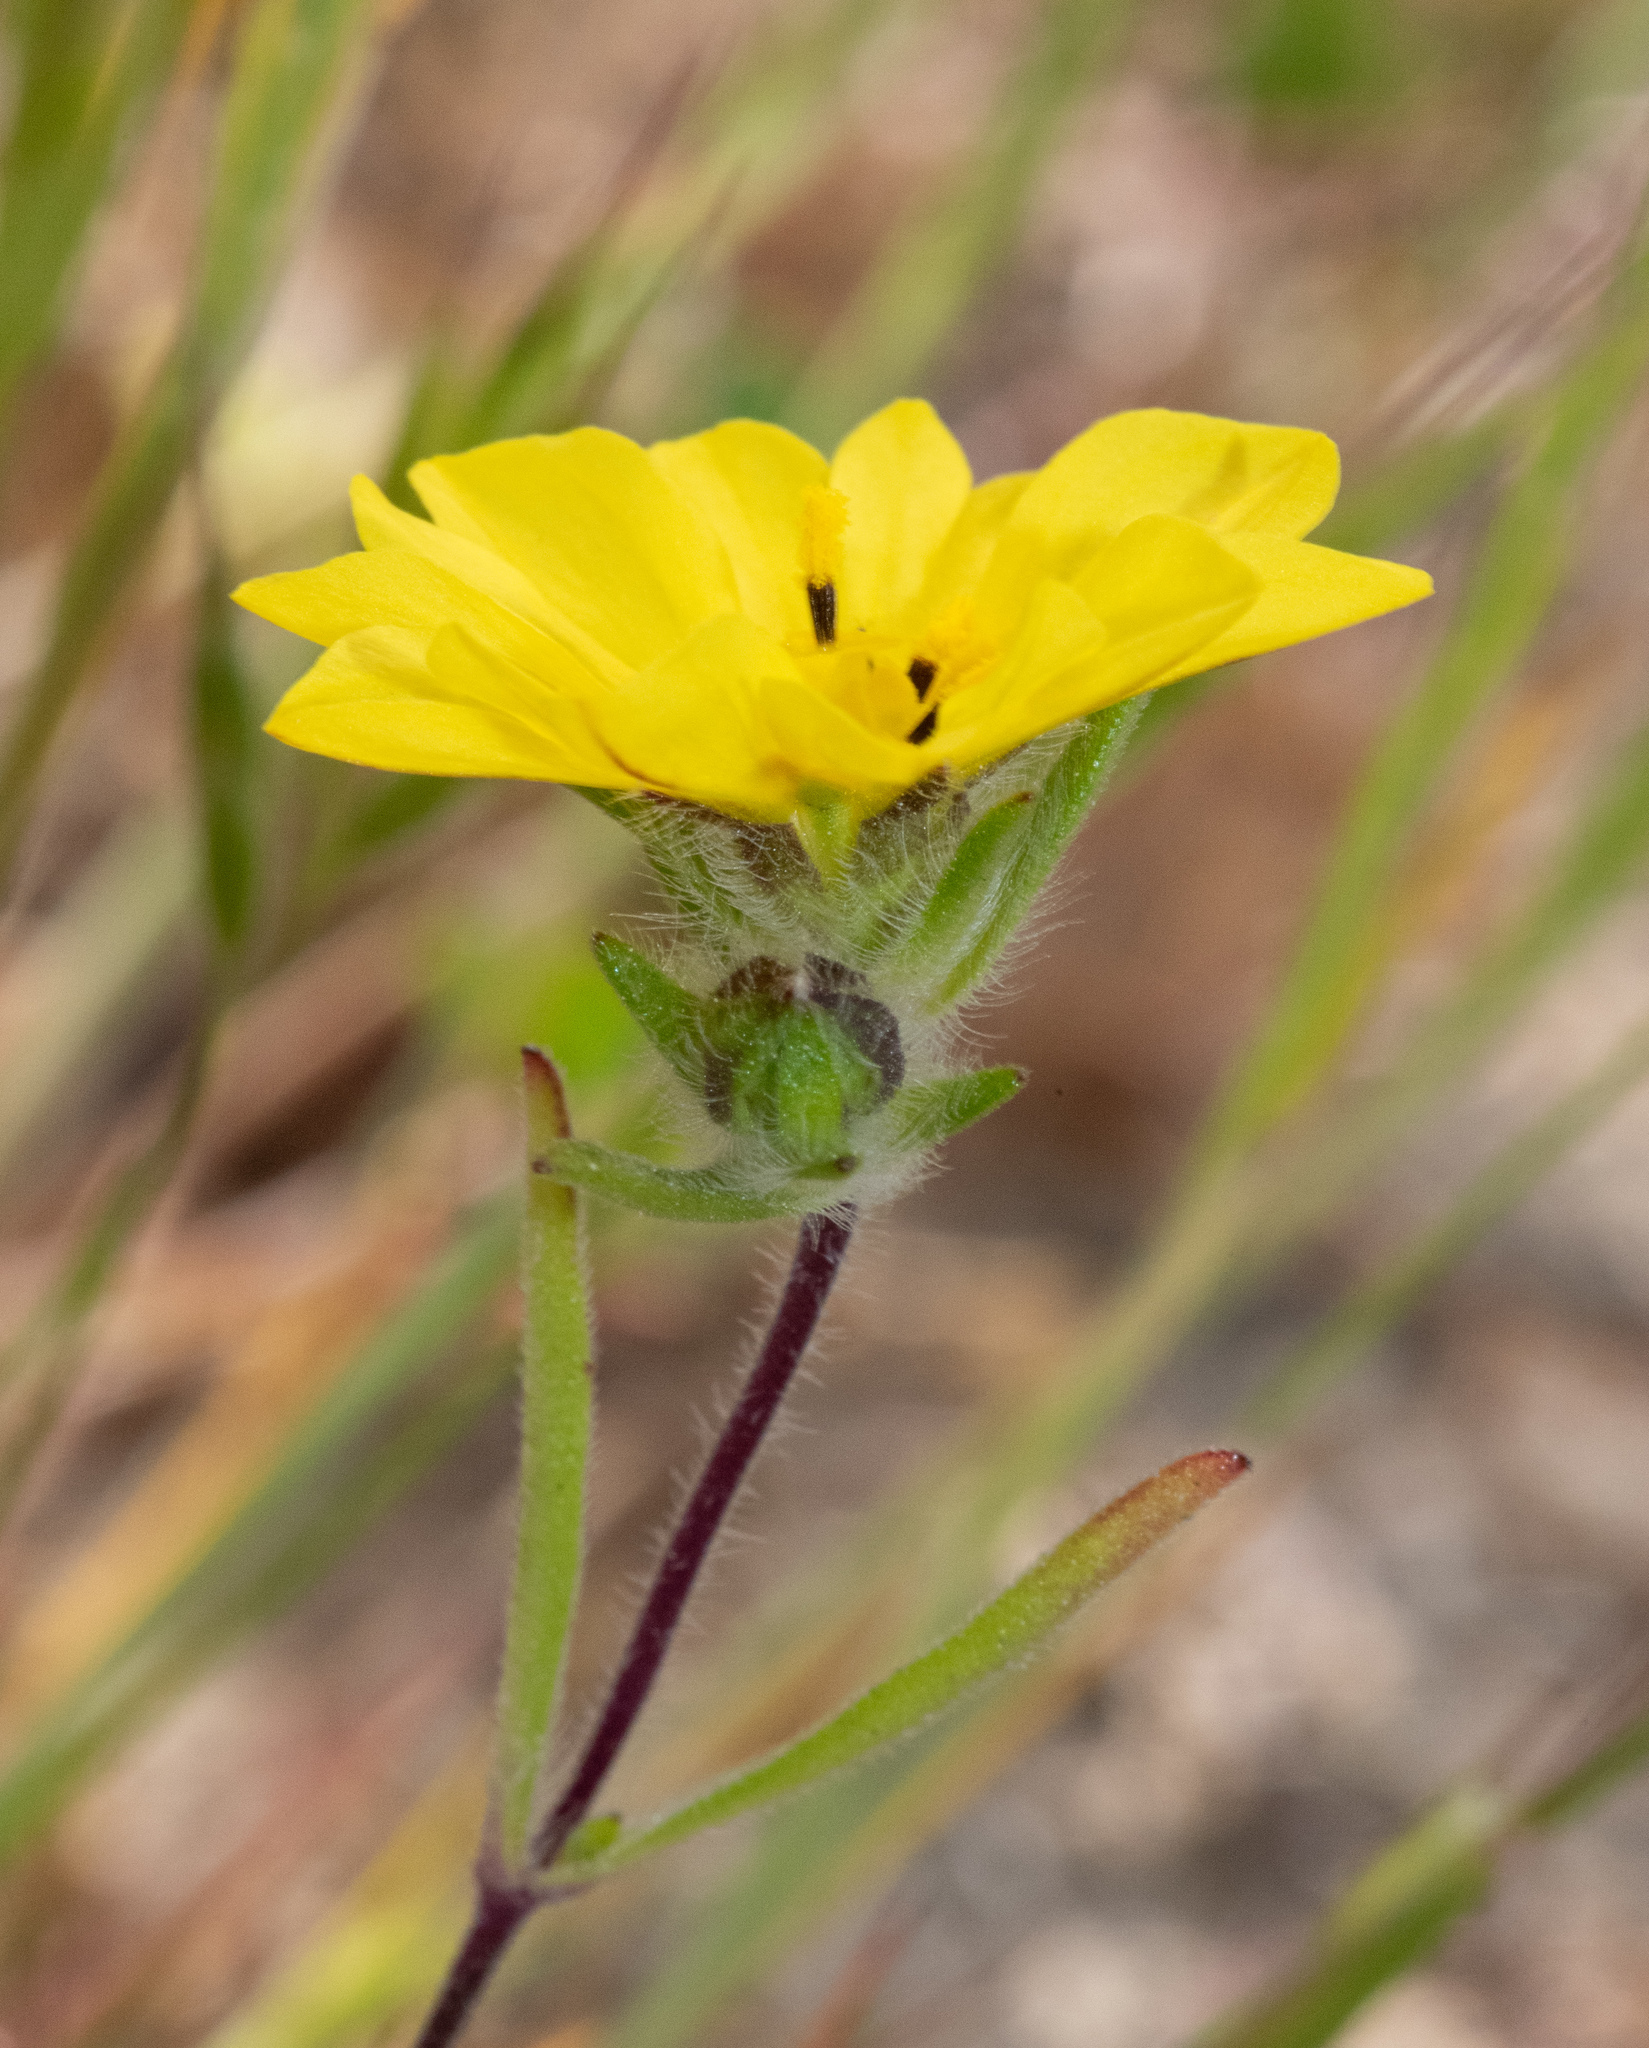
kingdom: Plantae
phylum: Tracheophyta
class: Magnoliopsida
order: Asterales
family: Asteraceae
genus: Lagophylla
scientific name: Lagophylla minor
